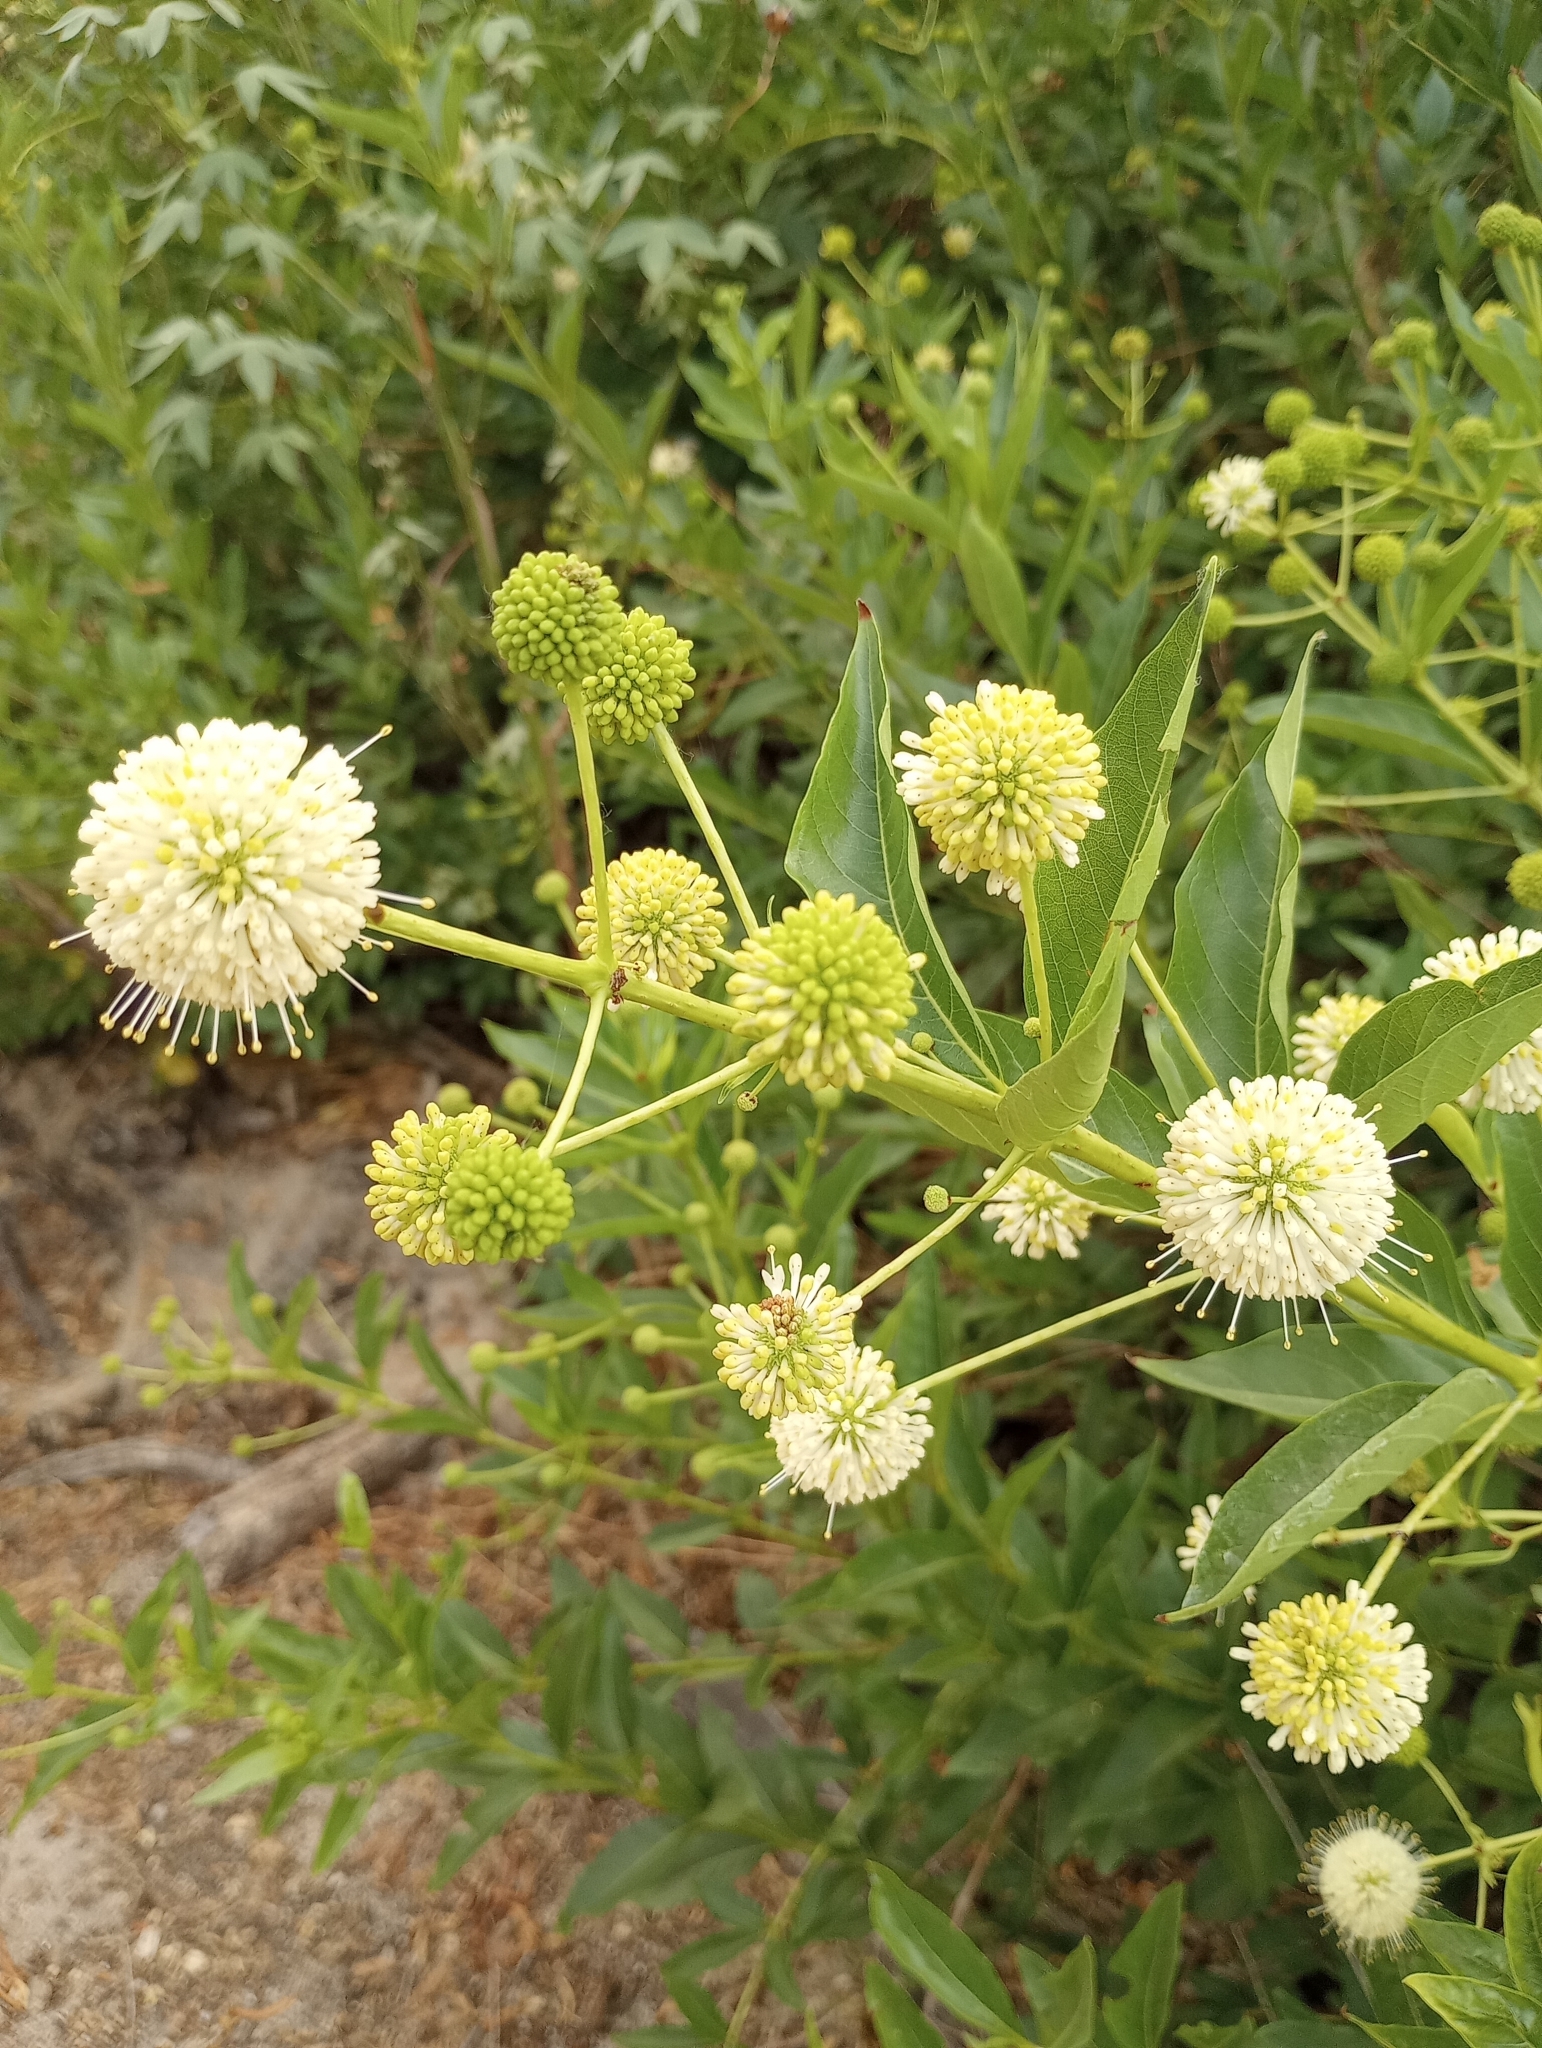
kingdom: Plantae
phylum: Tracheophyta
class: Magnoliopsida
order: Gentianales
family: Rubiaceae
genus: Cephalanthus
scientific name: Cephalanthus occidentalis
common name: Button-willow
